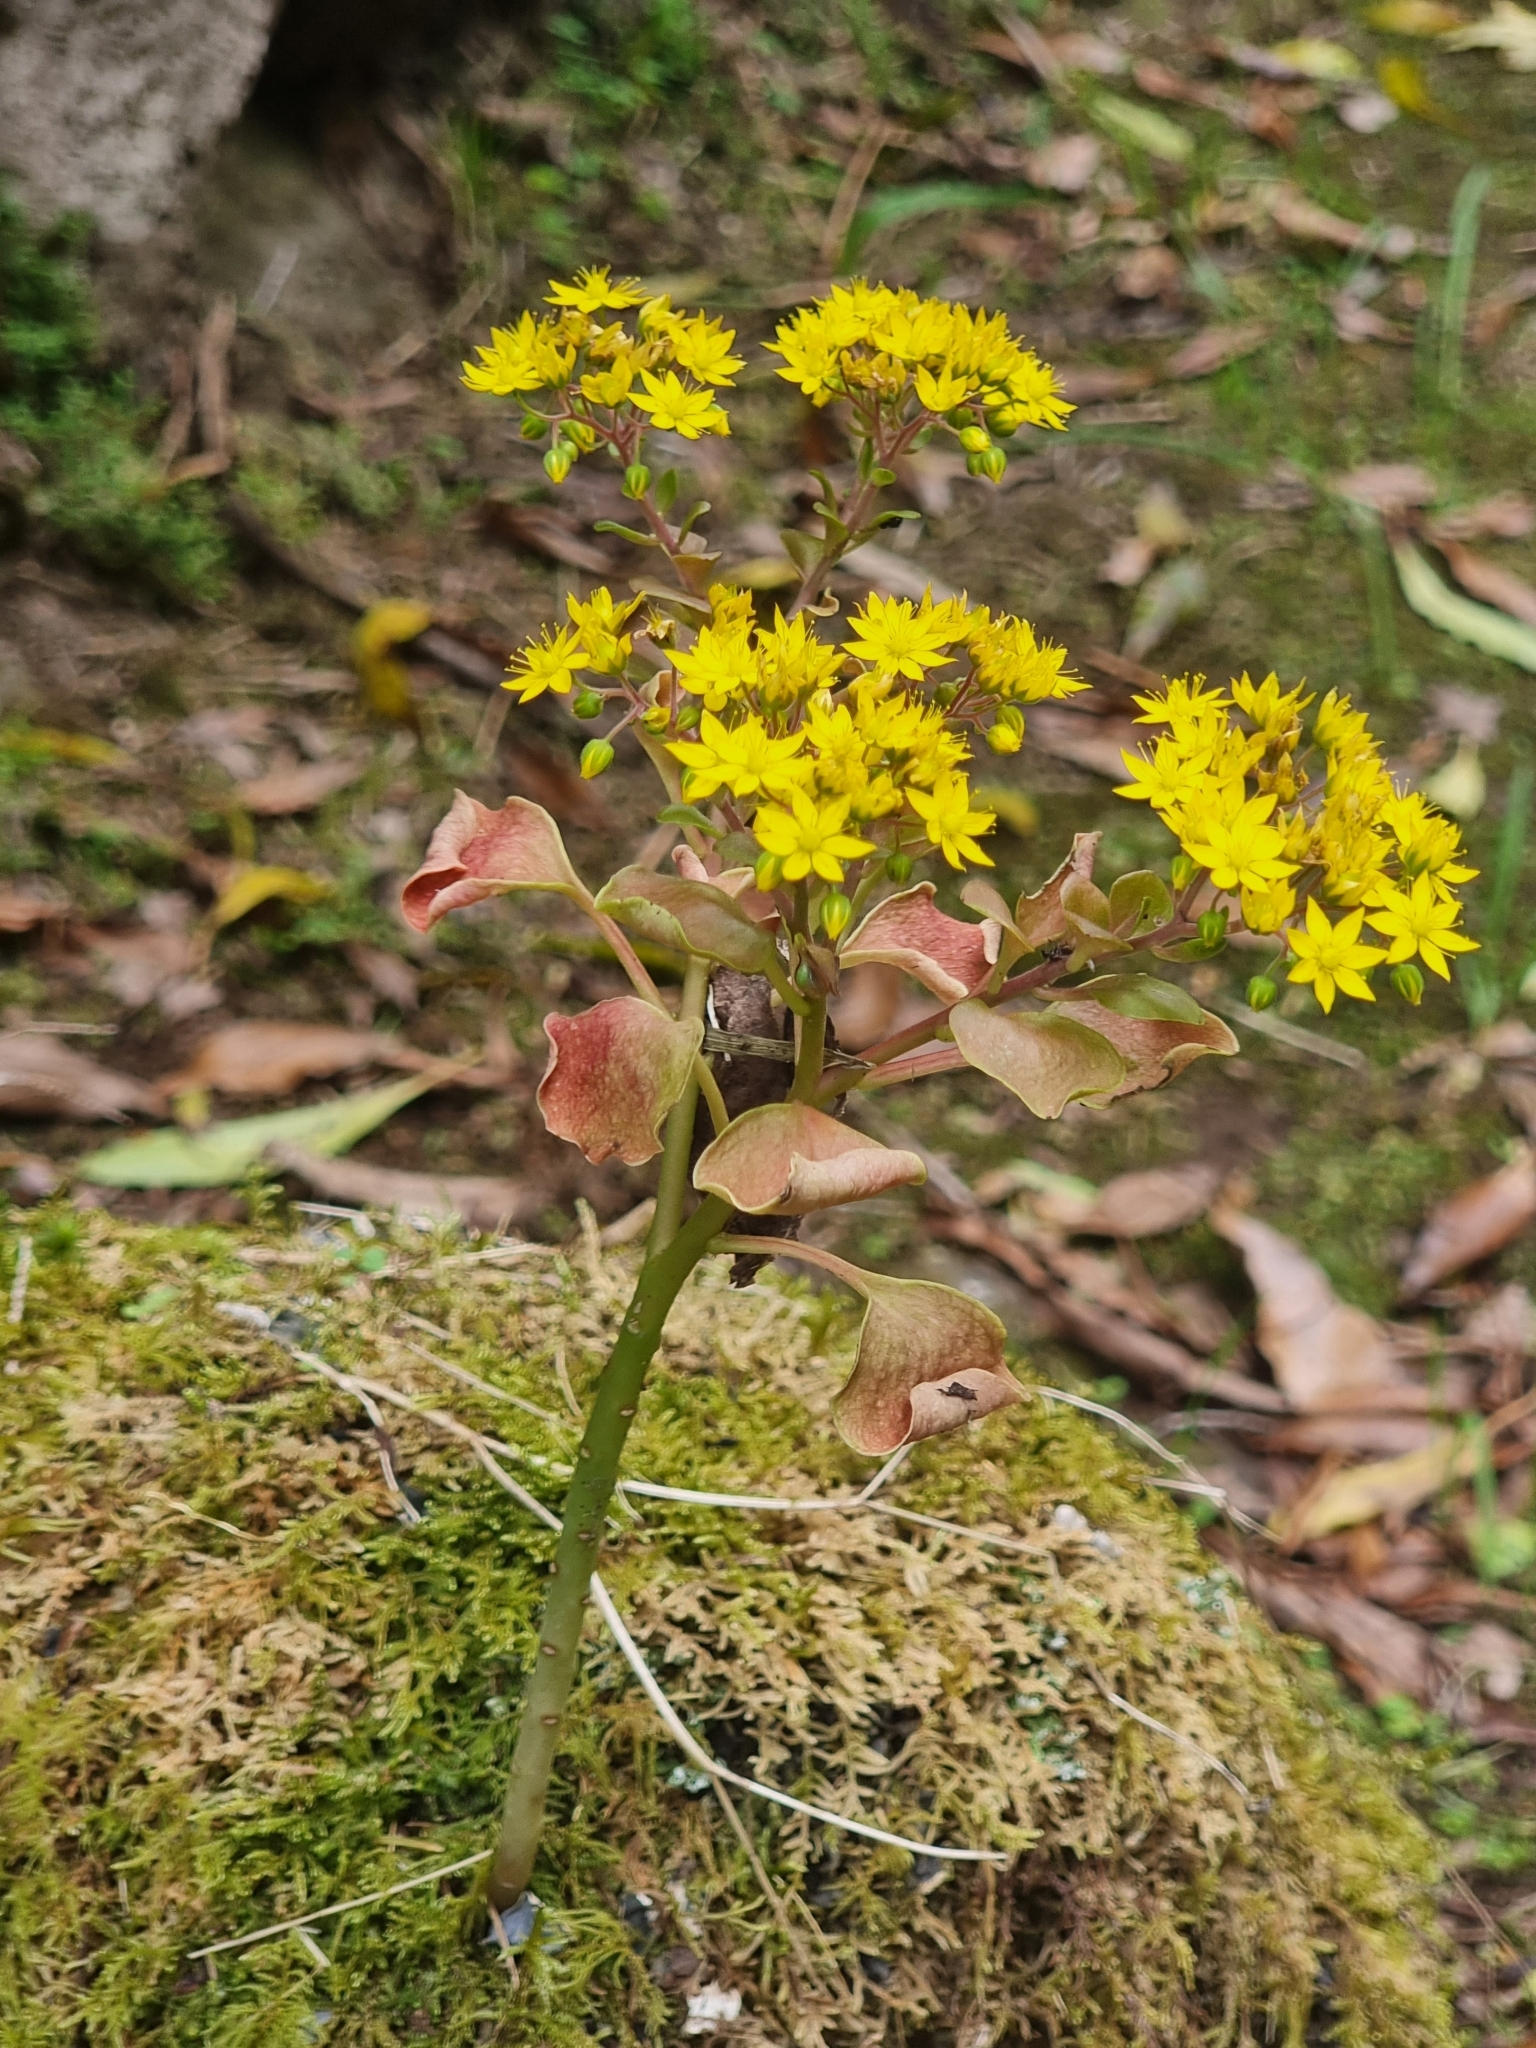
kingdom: Plantae
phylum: Tracheophyta
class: Magnoliopsida
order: Saxifragales
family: Crassulaceae
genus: Aichryson
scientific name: Aichryson divaricatum
